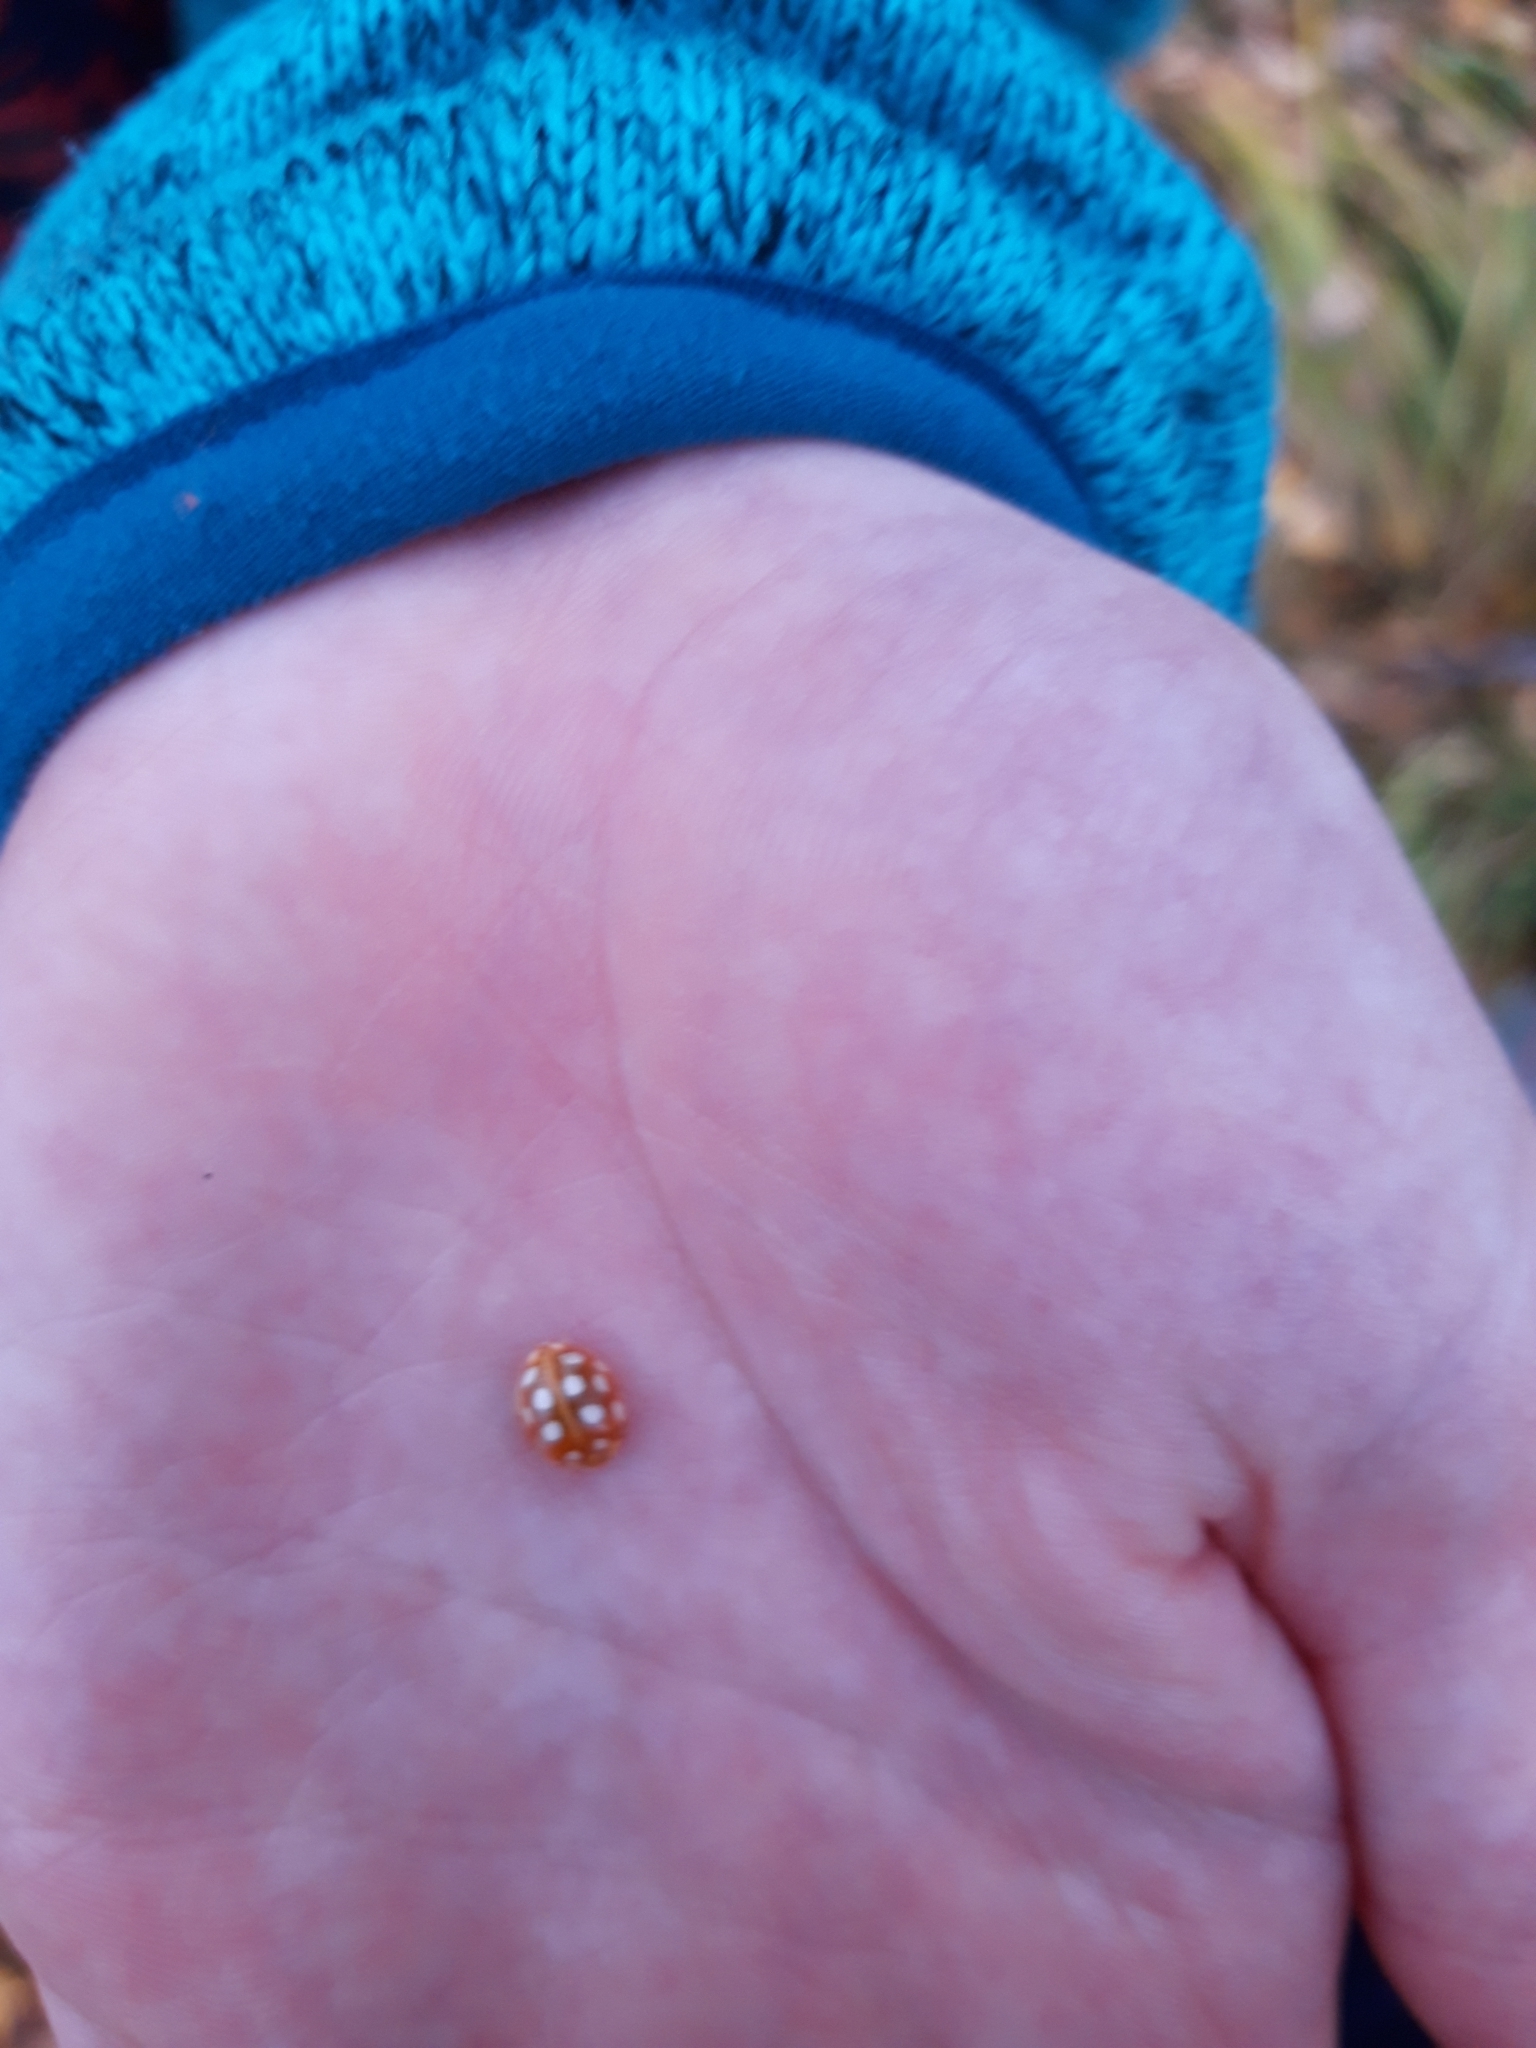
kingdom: Animalia
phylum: Arthropoda
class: Insecta
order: Coleoptera
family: Coccinellidae
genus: Halyzia
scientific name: Halyzia sedecimguttata
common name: Orange ladybird
